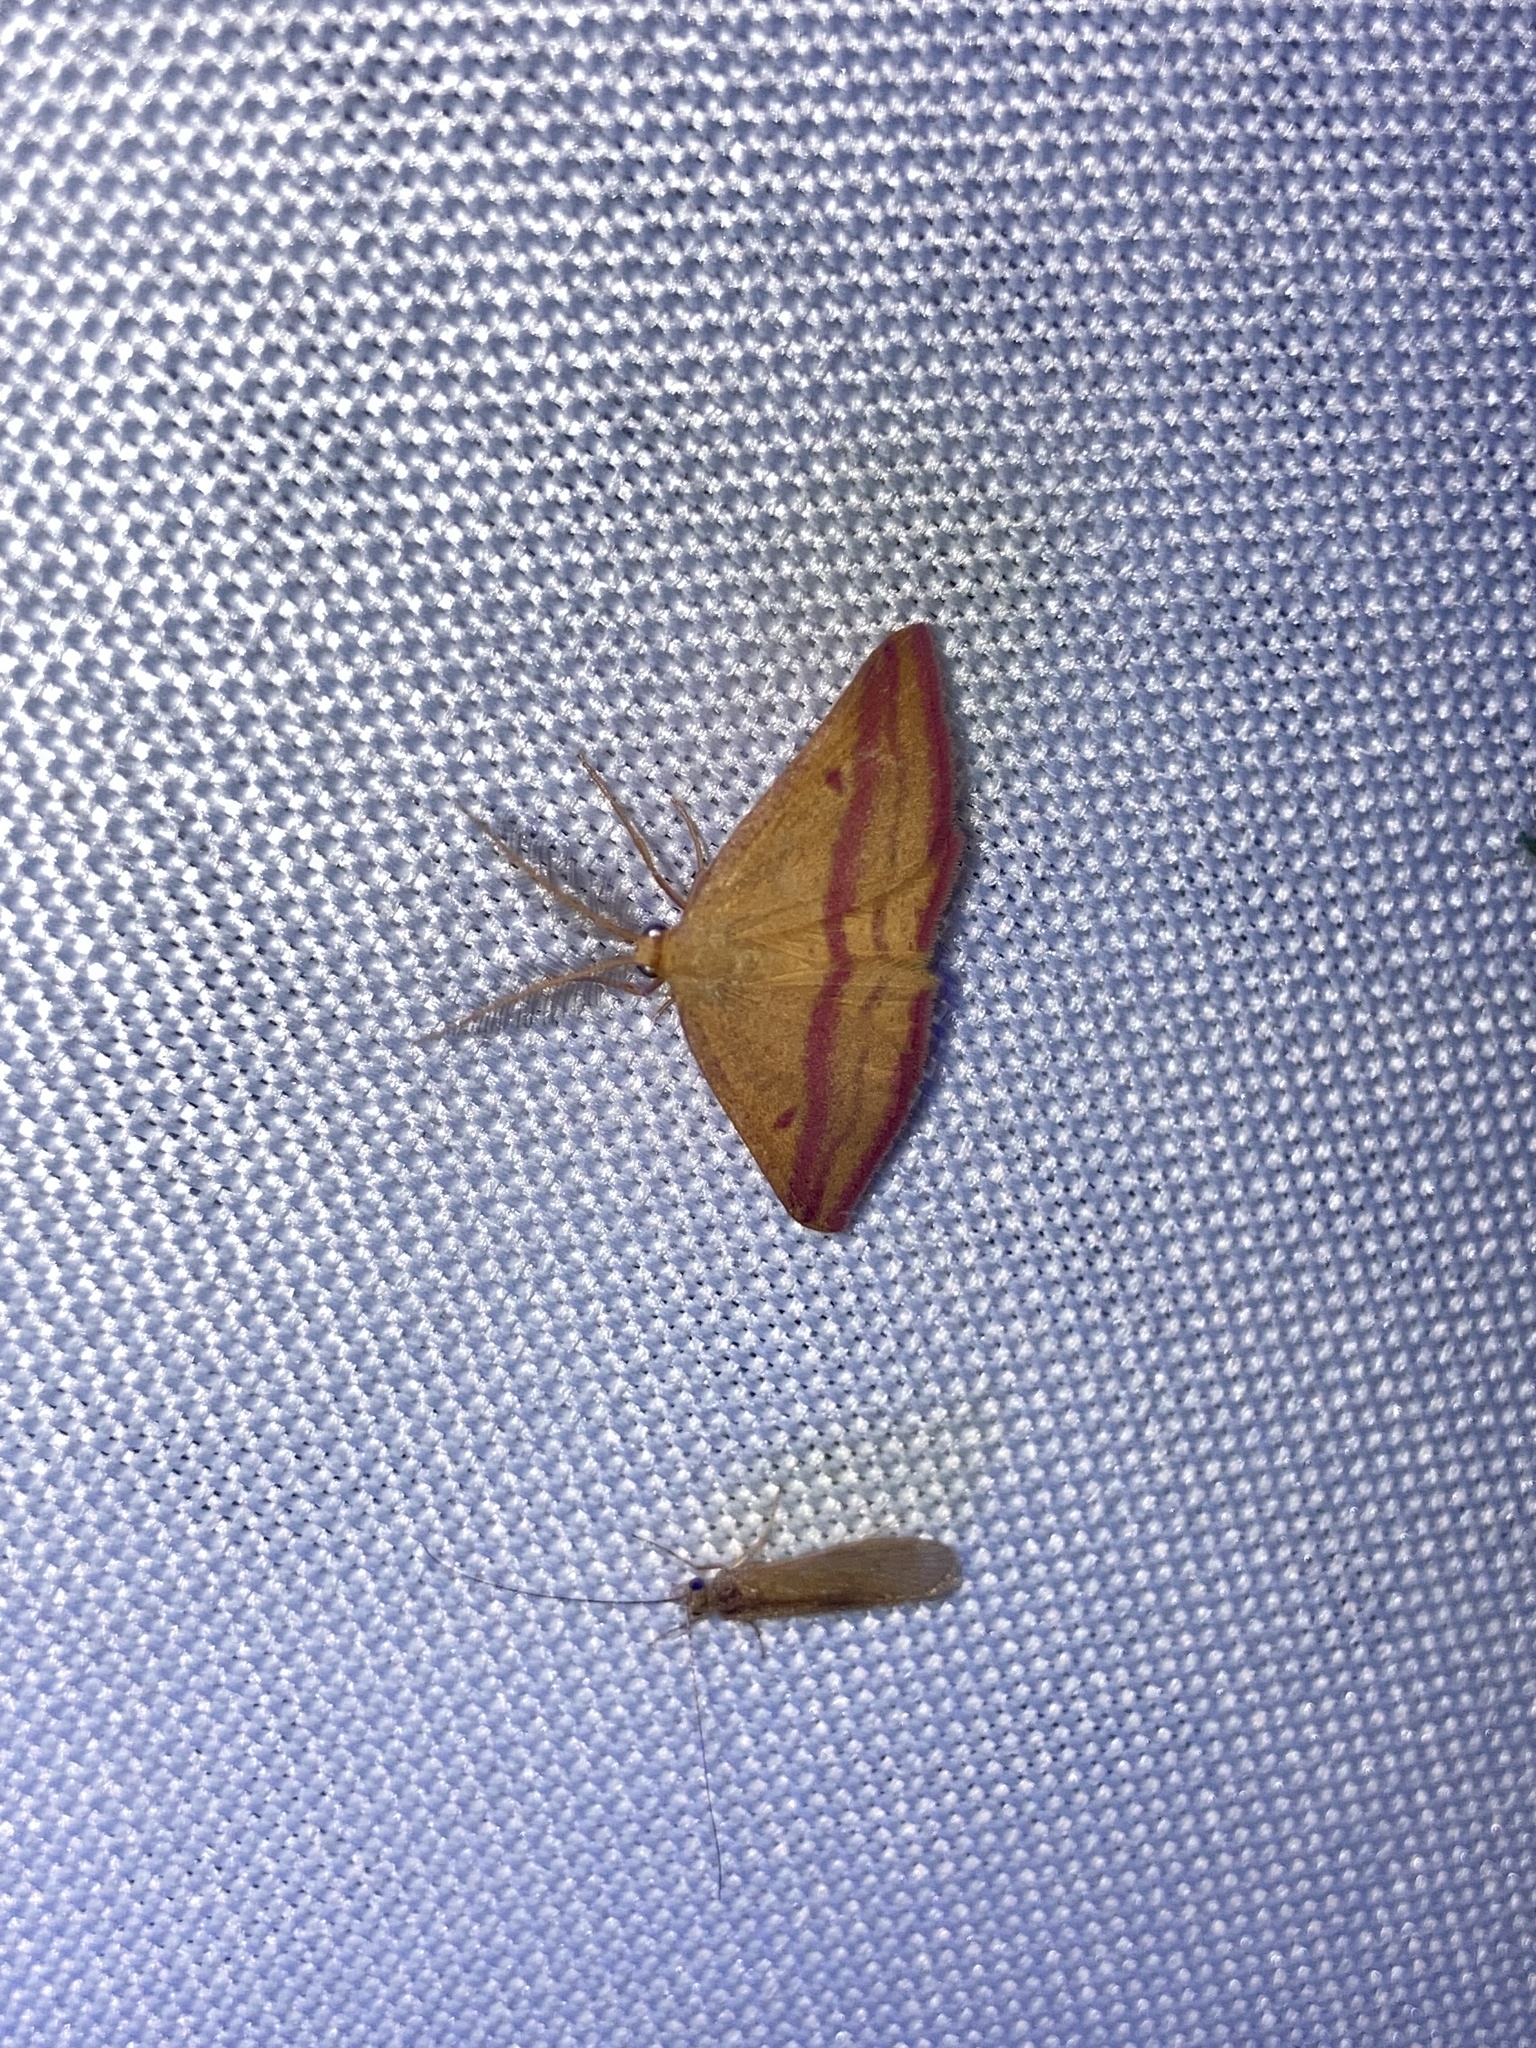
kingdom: Animalia
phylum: Arthropoda
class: Insecta
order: Lepidoptera
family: Geometridae
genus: Haematopis
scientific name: Haematopis grataria
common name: Chickweed geometer
